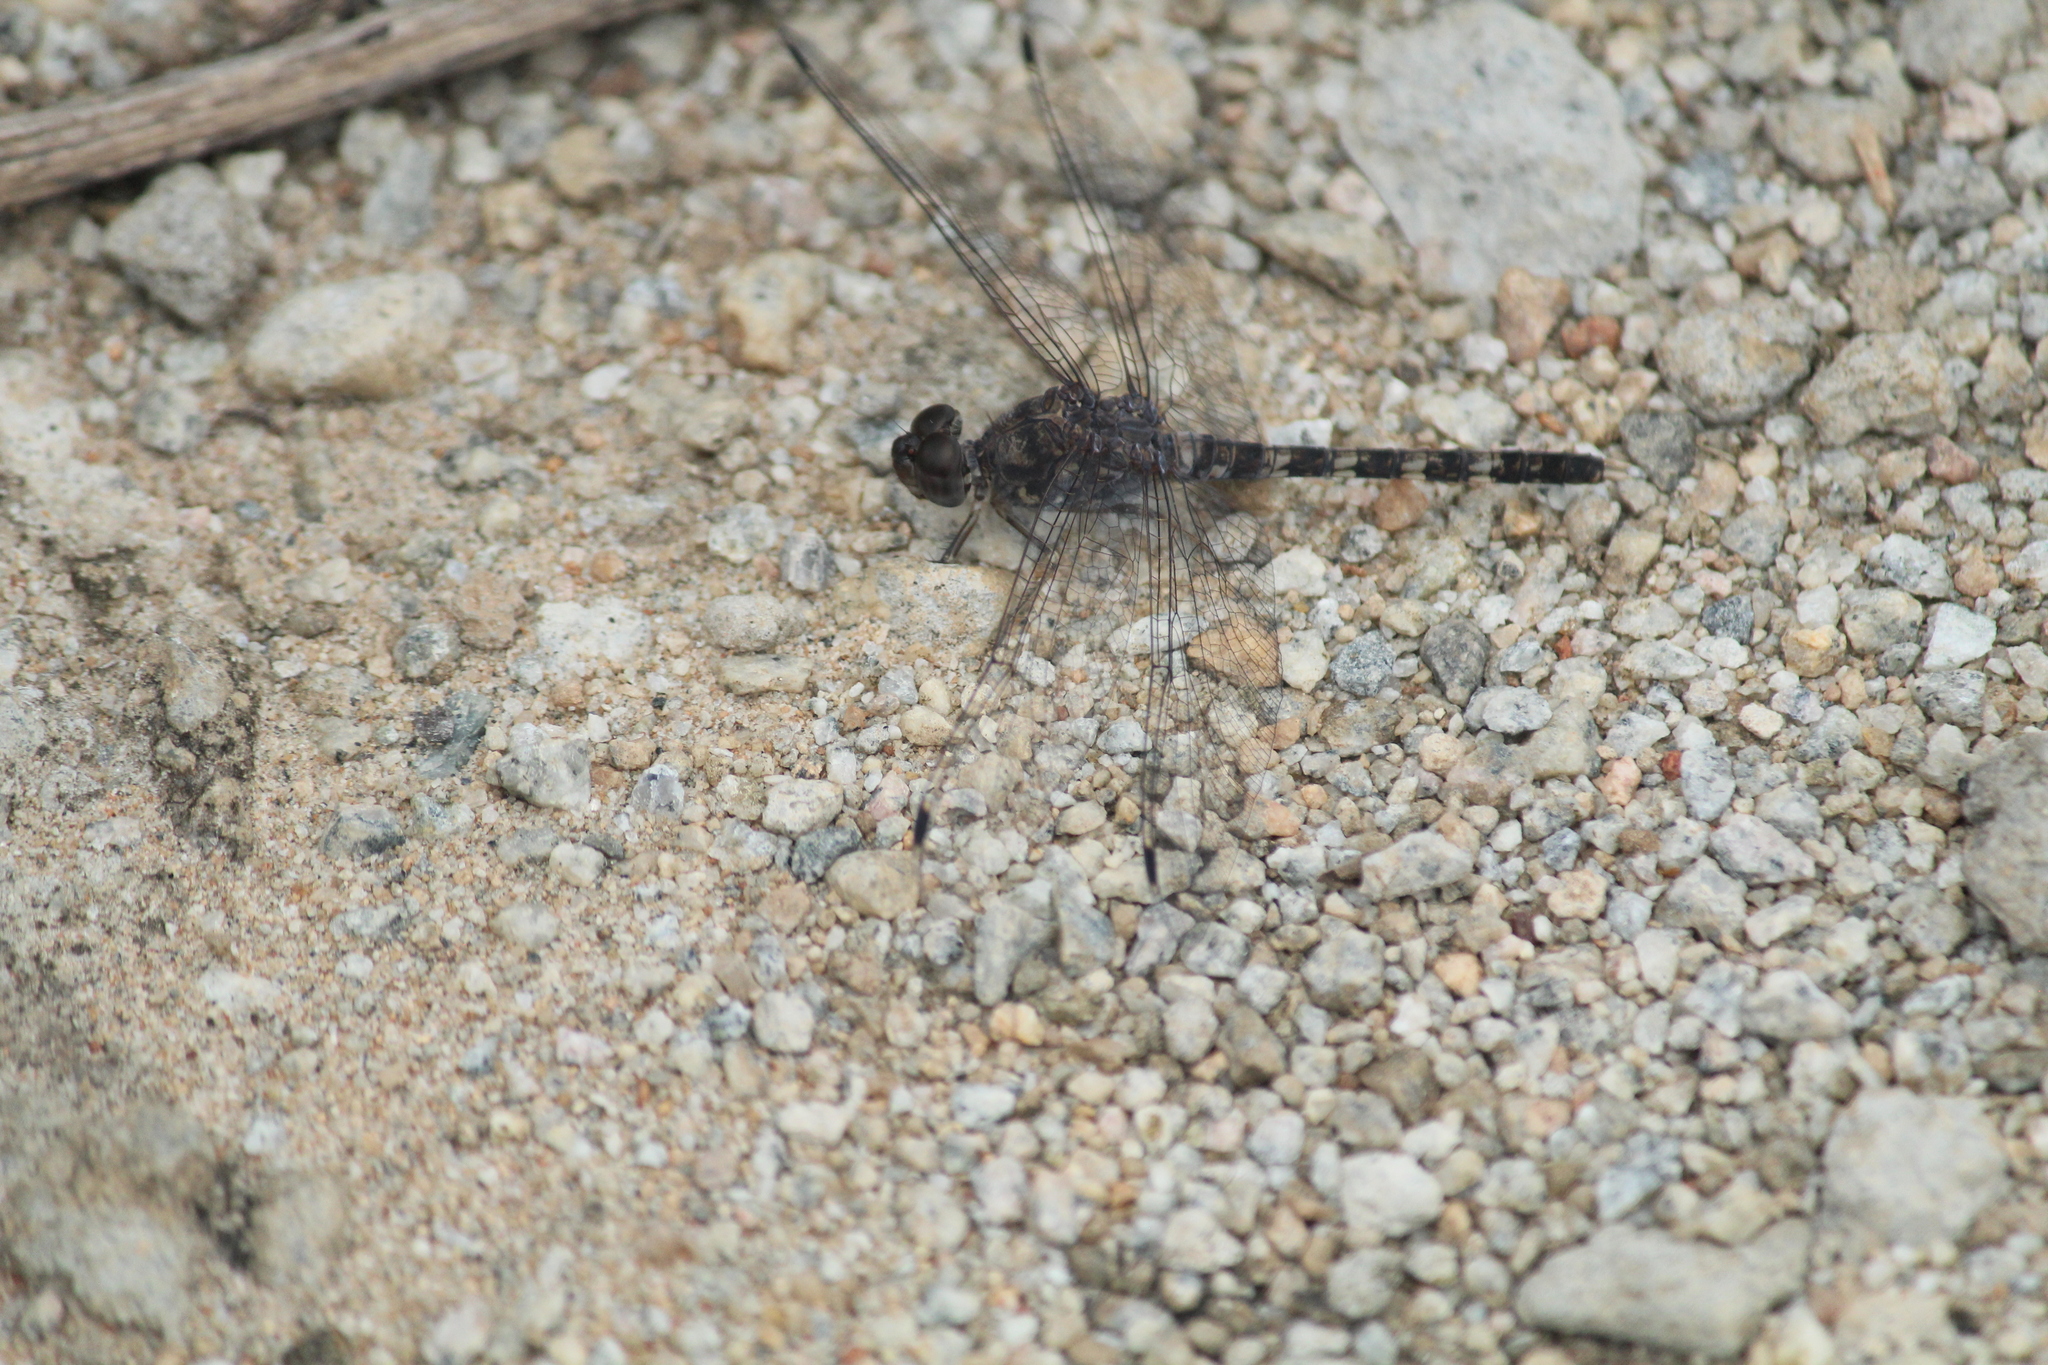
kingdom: Animalia
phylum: Arthropoda
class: Insecta
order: Odonata
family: Libellulidae
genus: Bradinopyga
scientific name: Bradinopyga geminata
